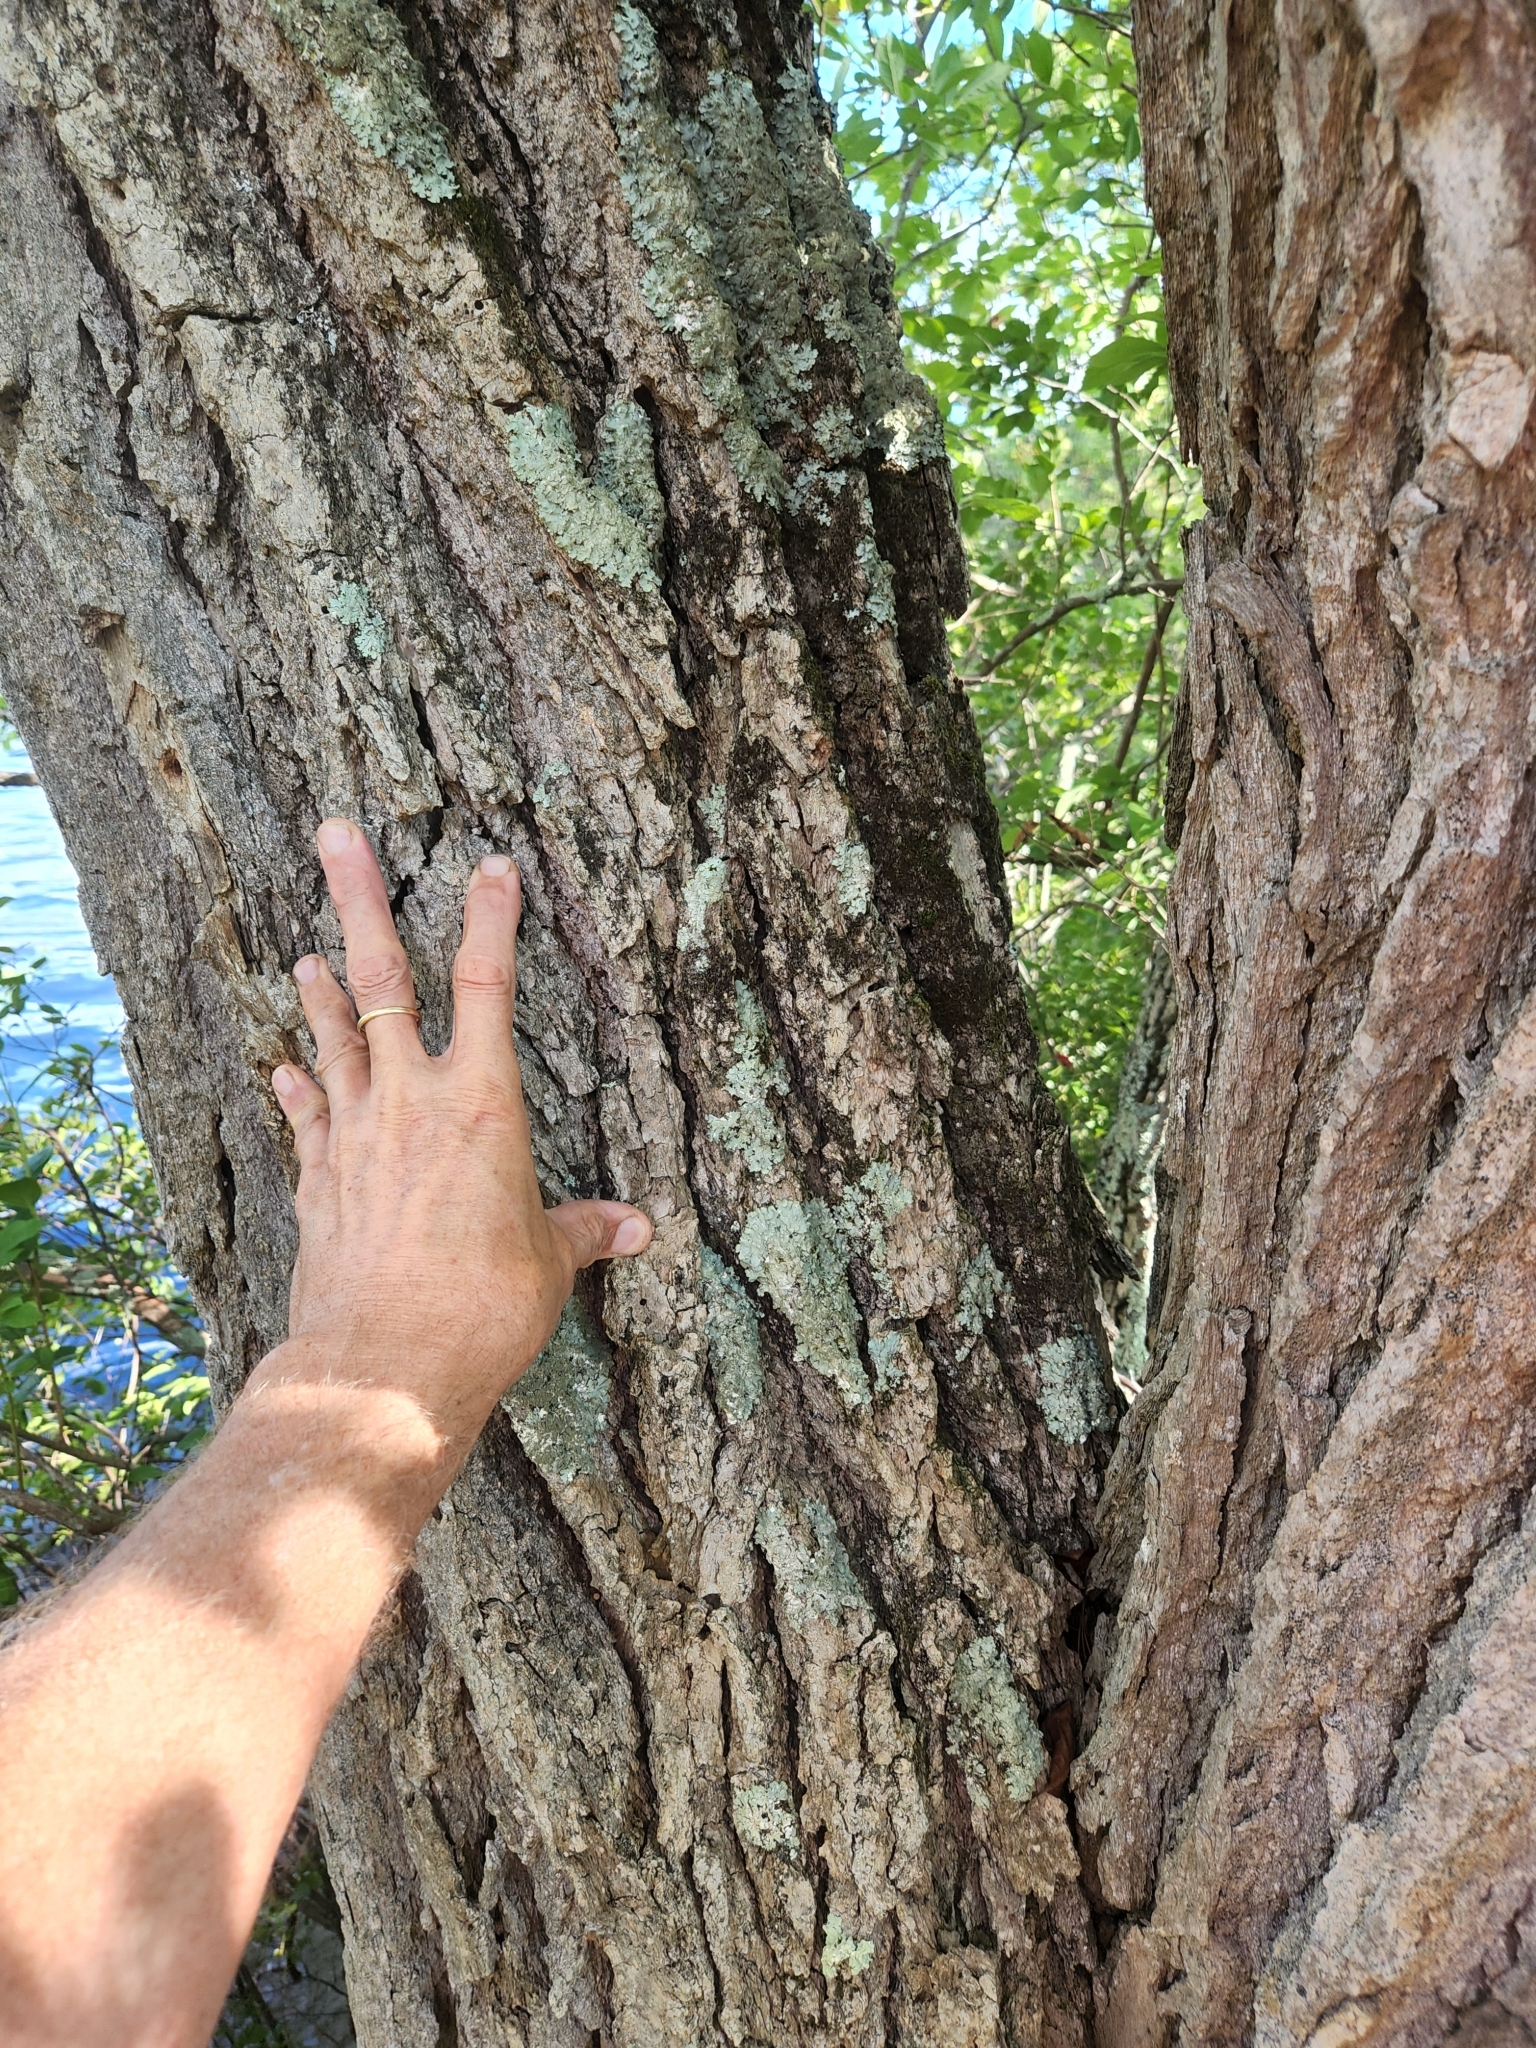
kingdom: Plantae
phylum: Tracheophyta
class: Magnoliopsida
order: Cornales
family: Nyssaceae
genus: Nyssa
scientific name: Nyssa sylvatica
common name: Black tupelo
